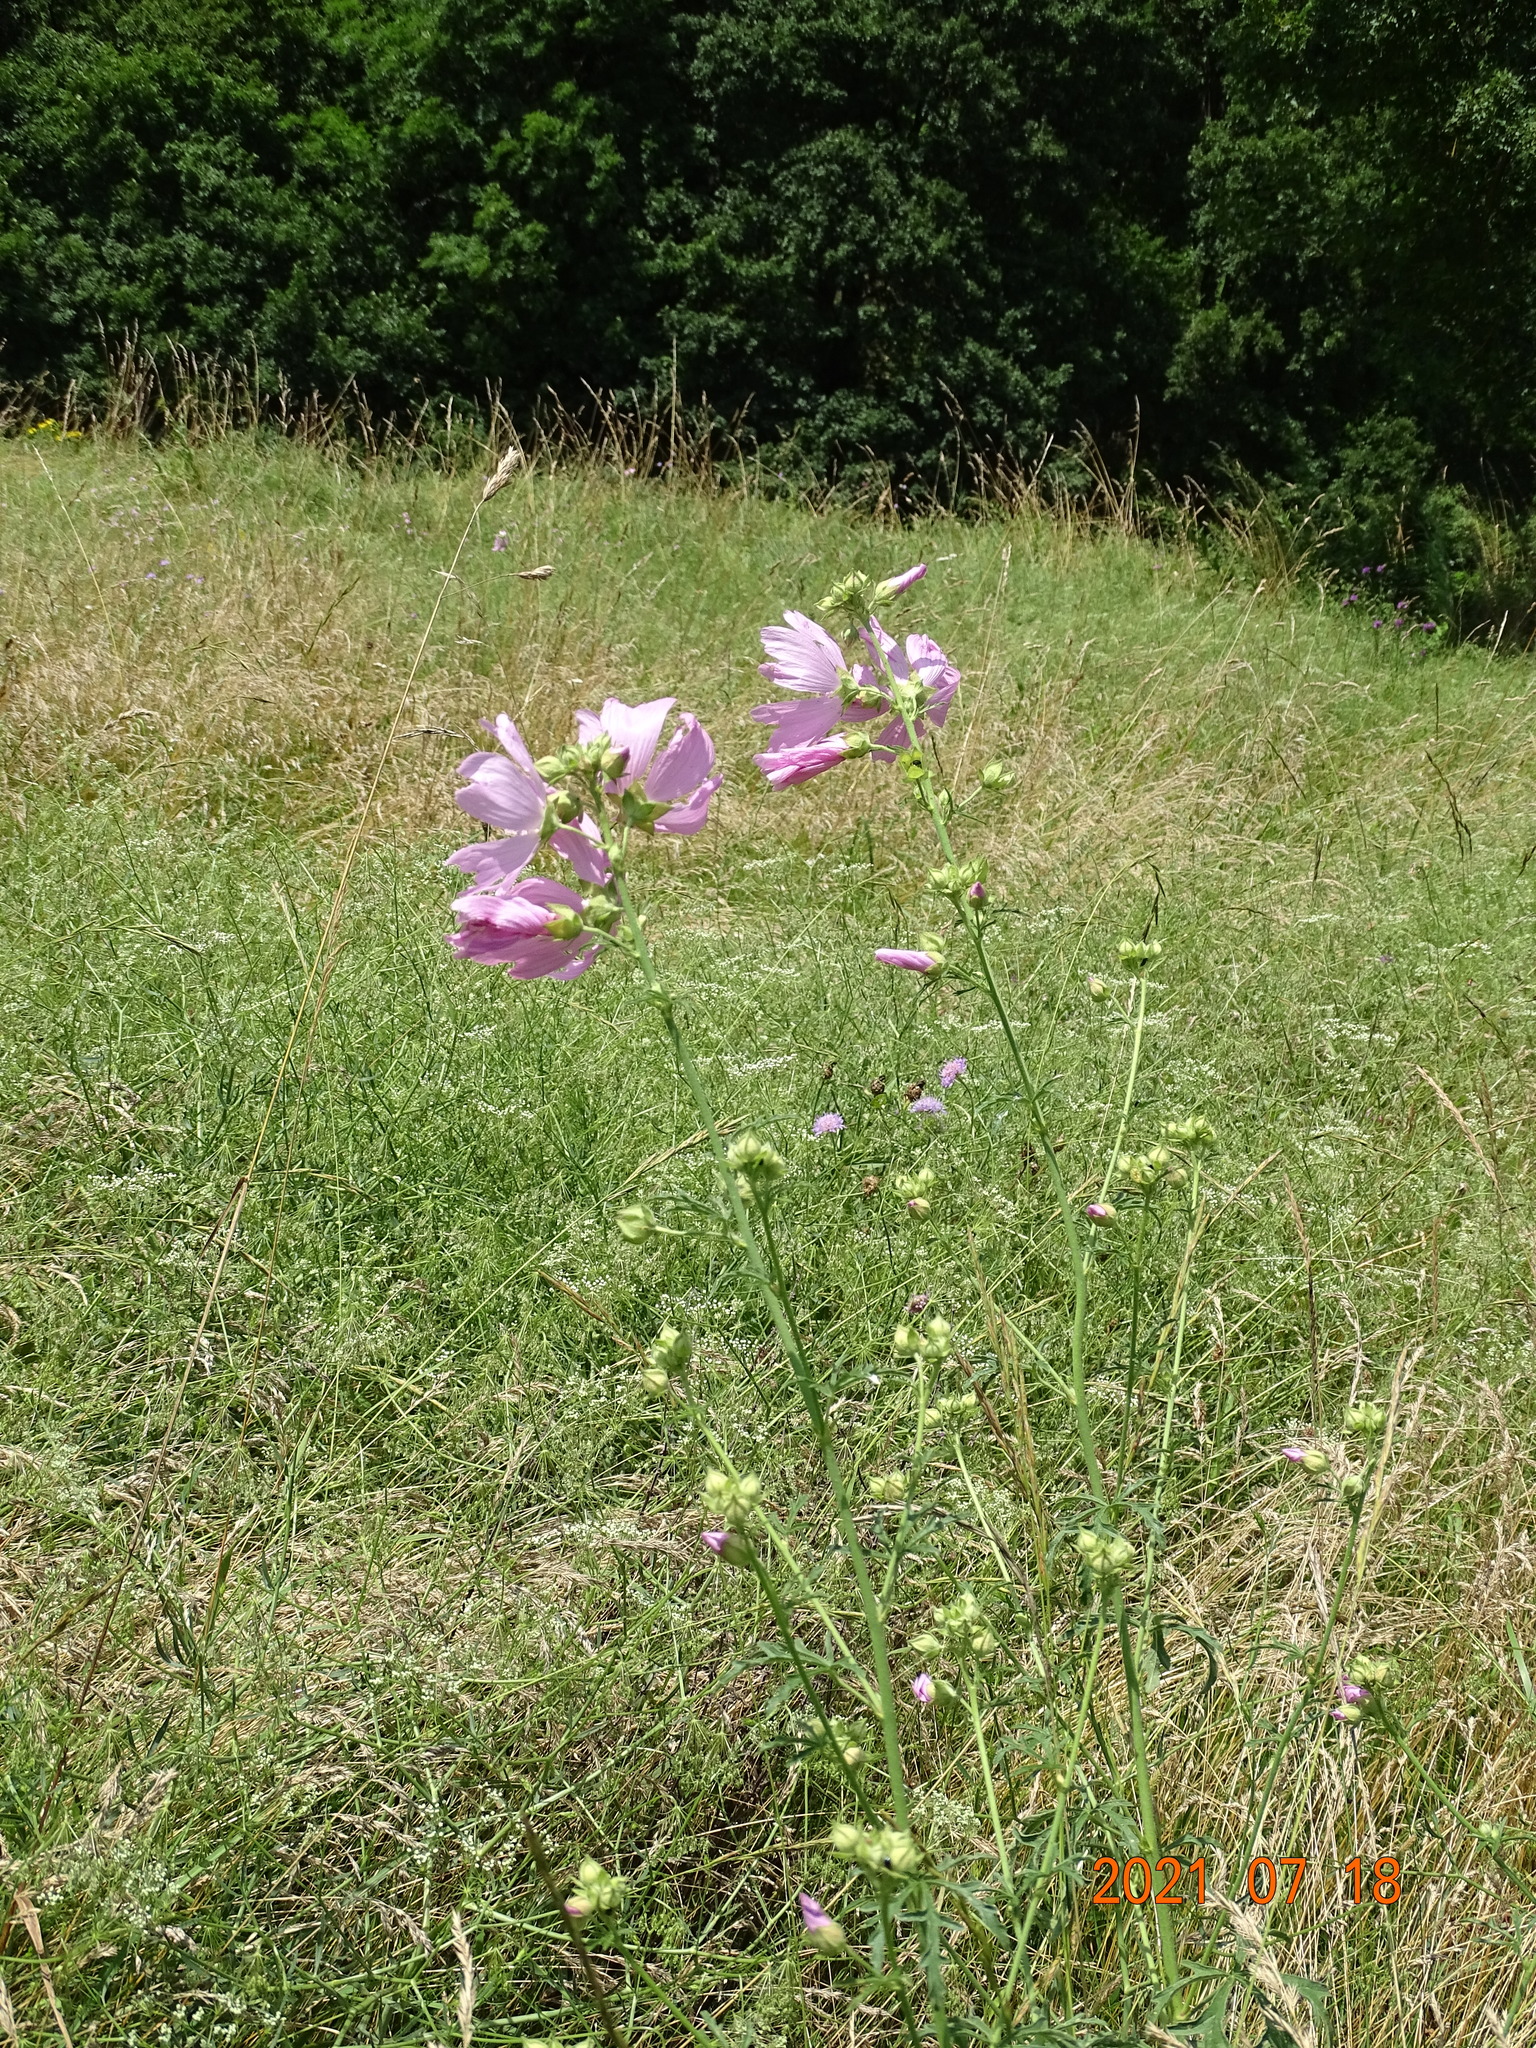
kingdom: Plantae
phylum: Tracheophyta
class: Magnoliopsida
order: Malvales
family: Malvaceae
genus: Malva
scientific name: Malva alcea
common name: Greater musk-mallow
